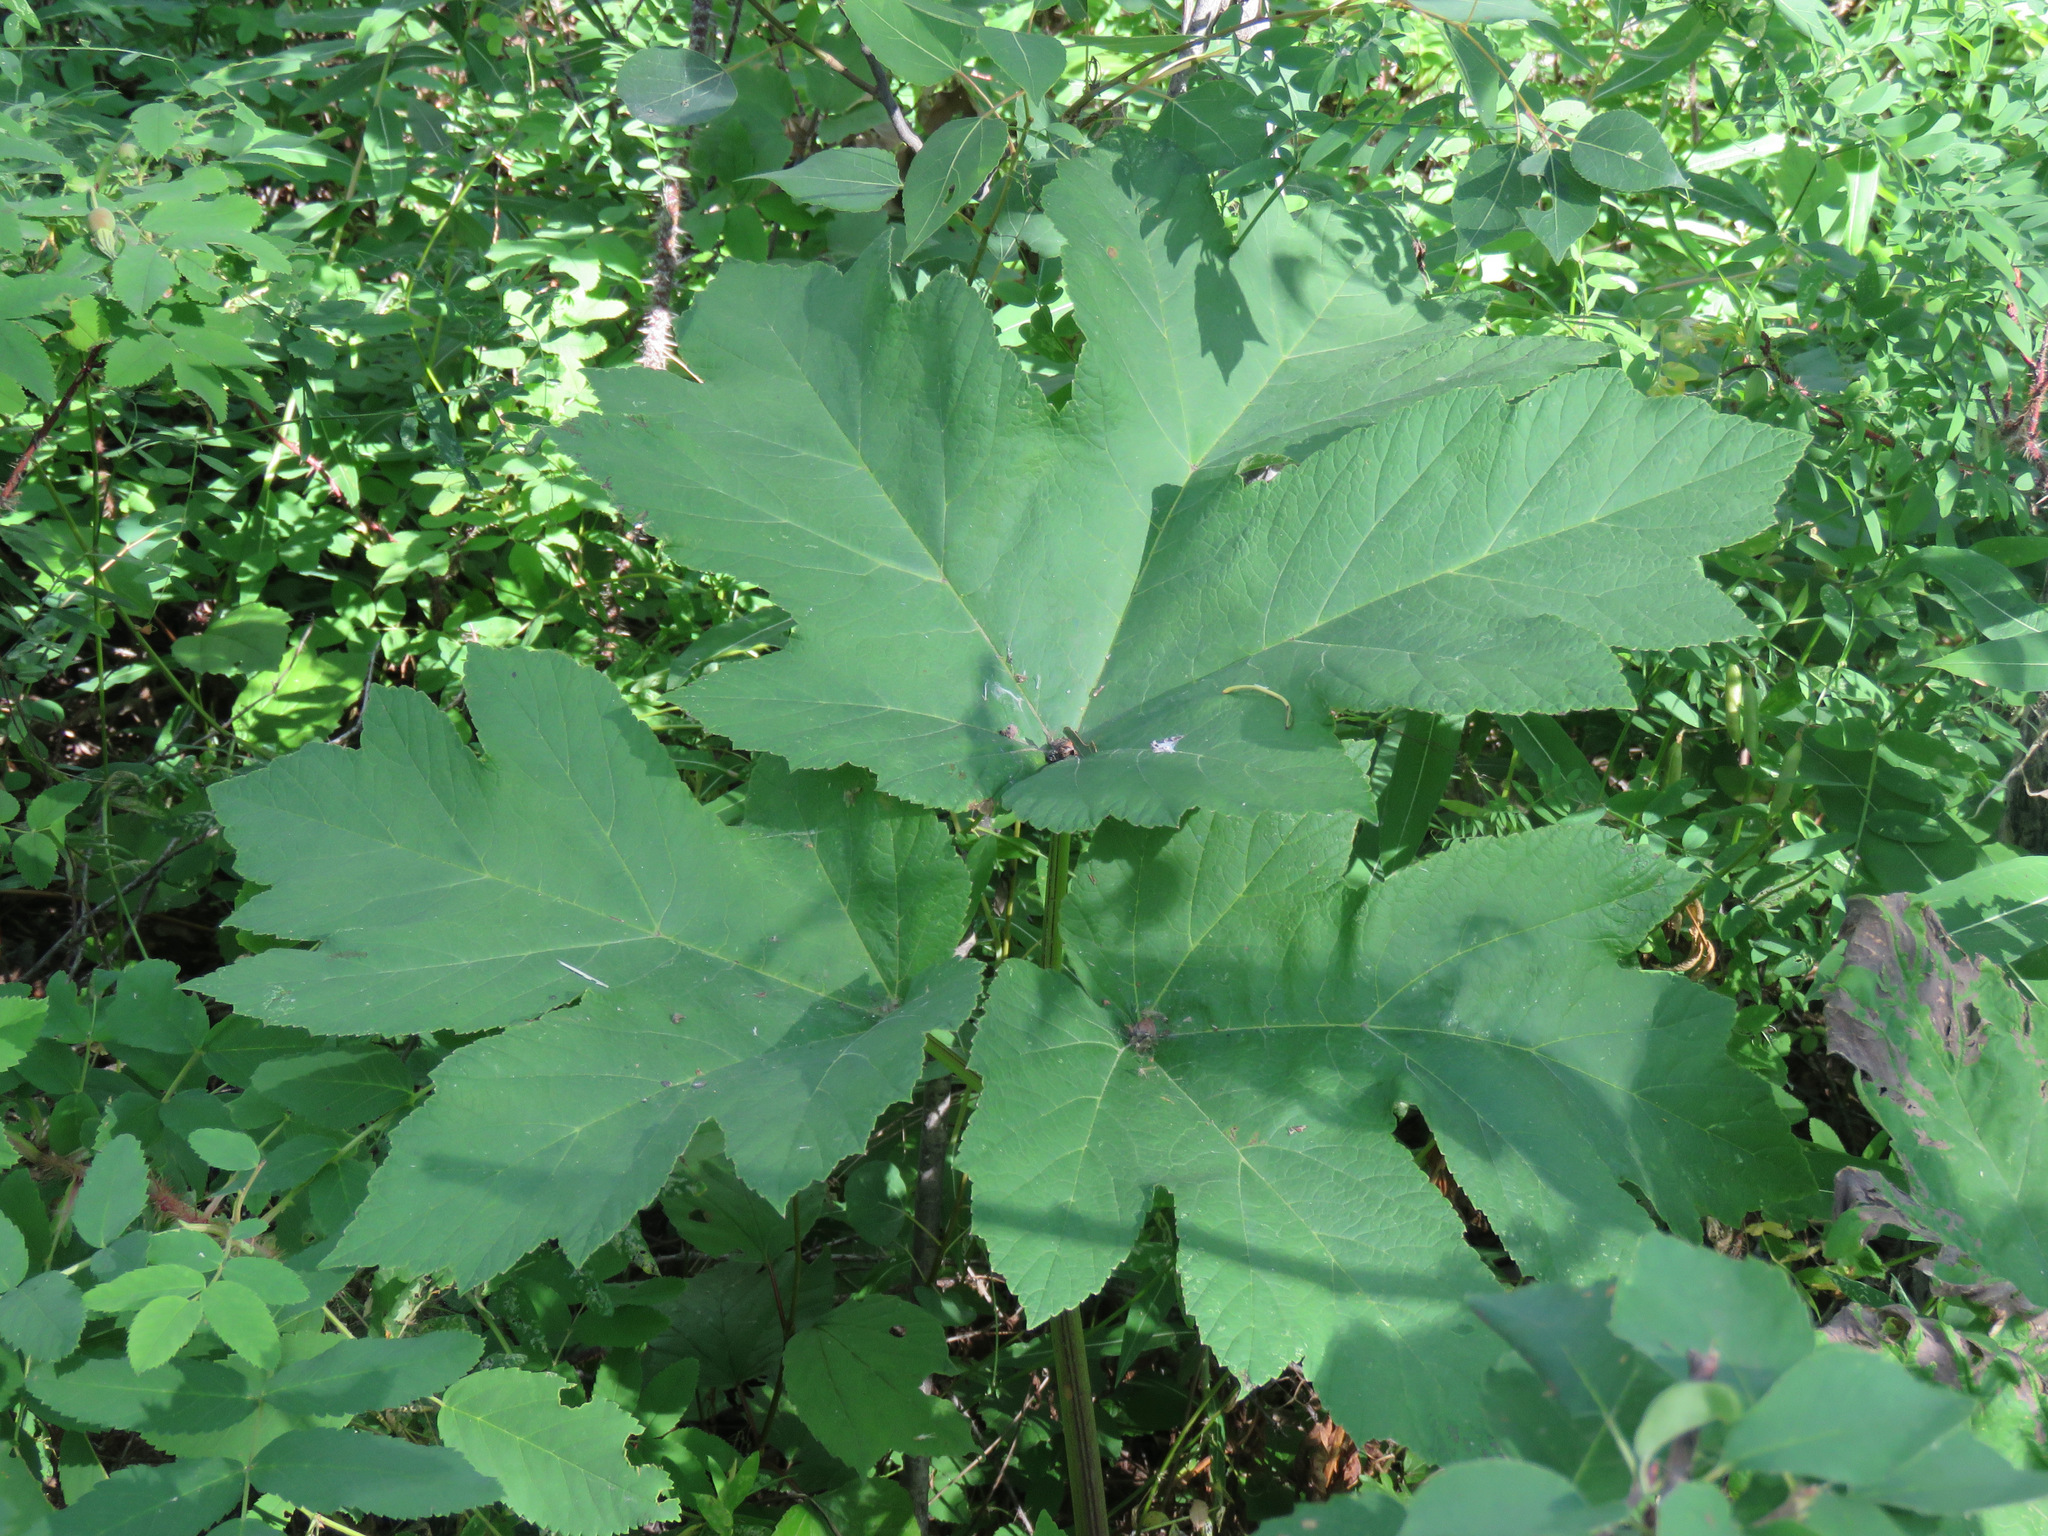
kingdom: Plantae
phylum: Tracheophyta
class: Magnoliopsida
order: Apiales
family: Apiaceae
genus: Heracleum
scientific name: Heracleum maximum
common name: American cow parsnip
